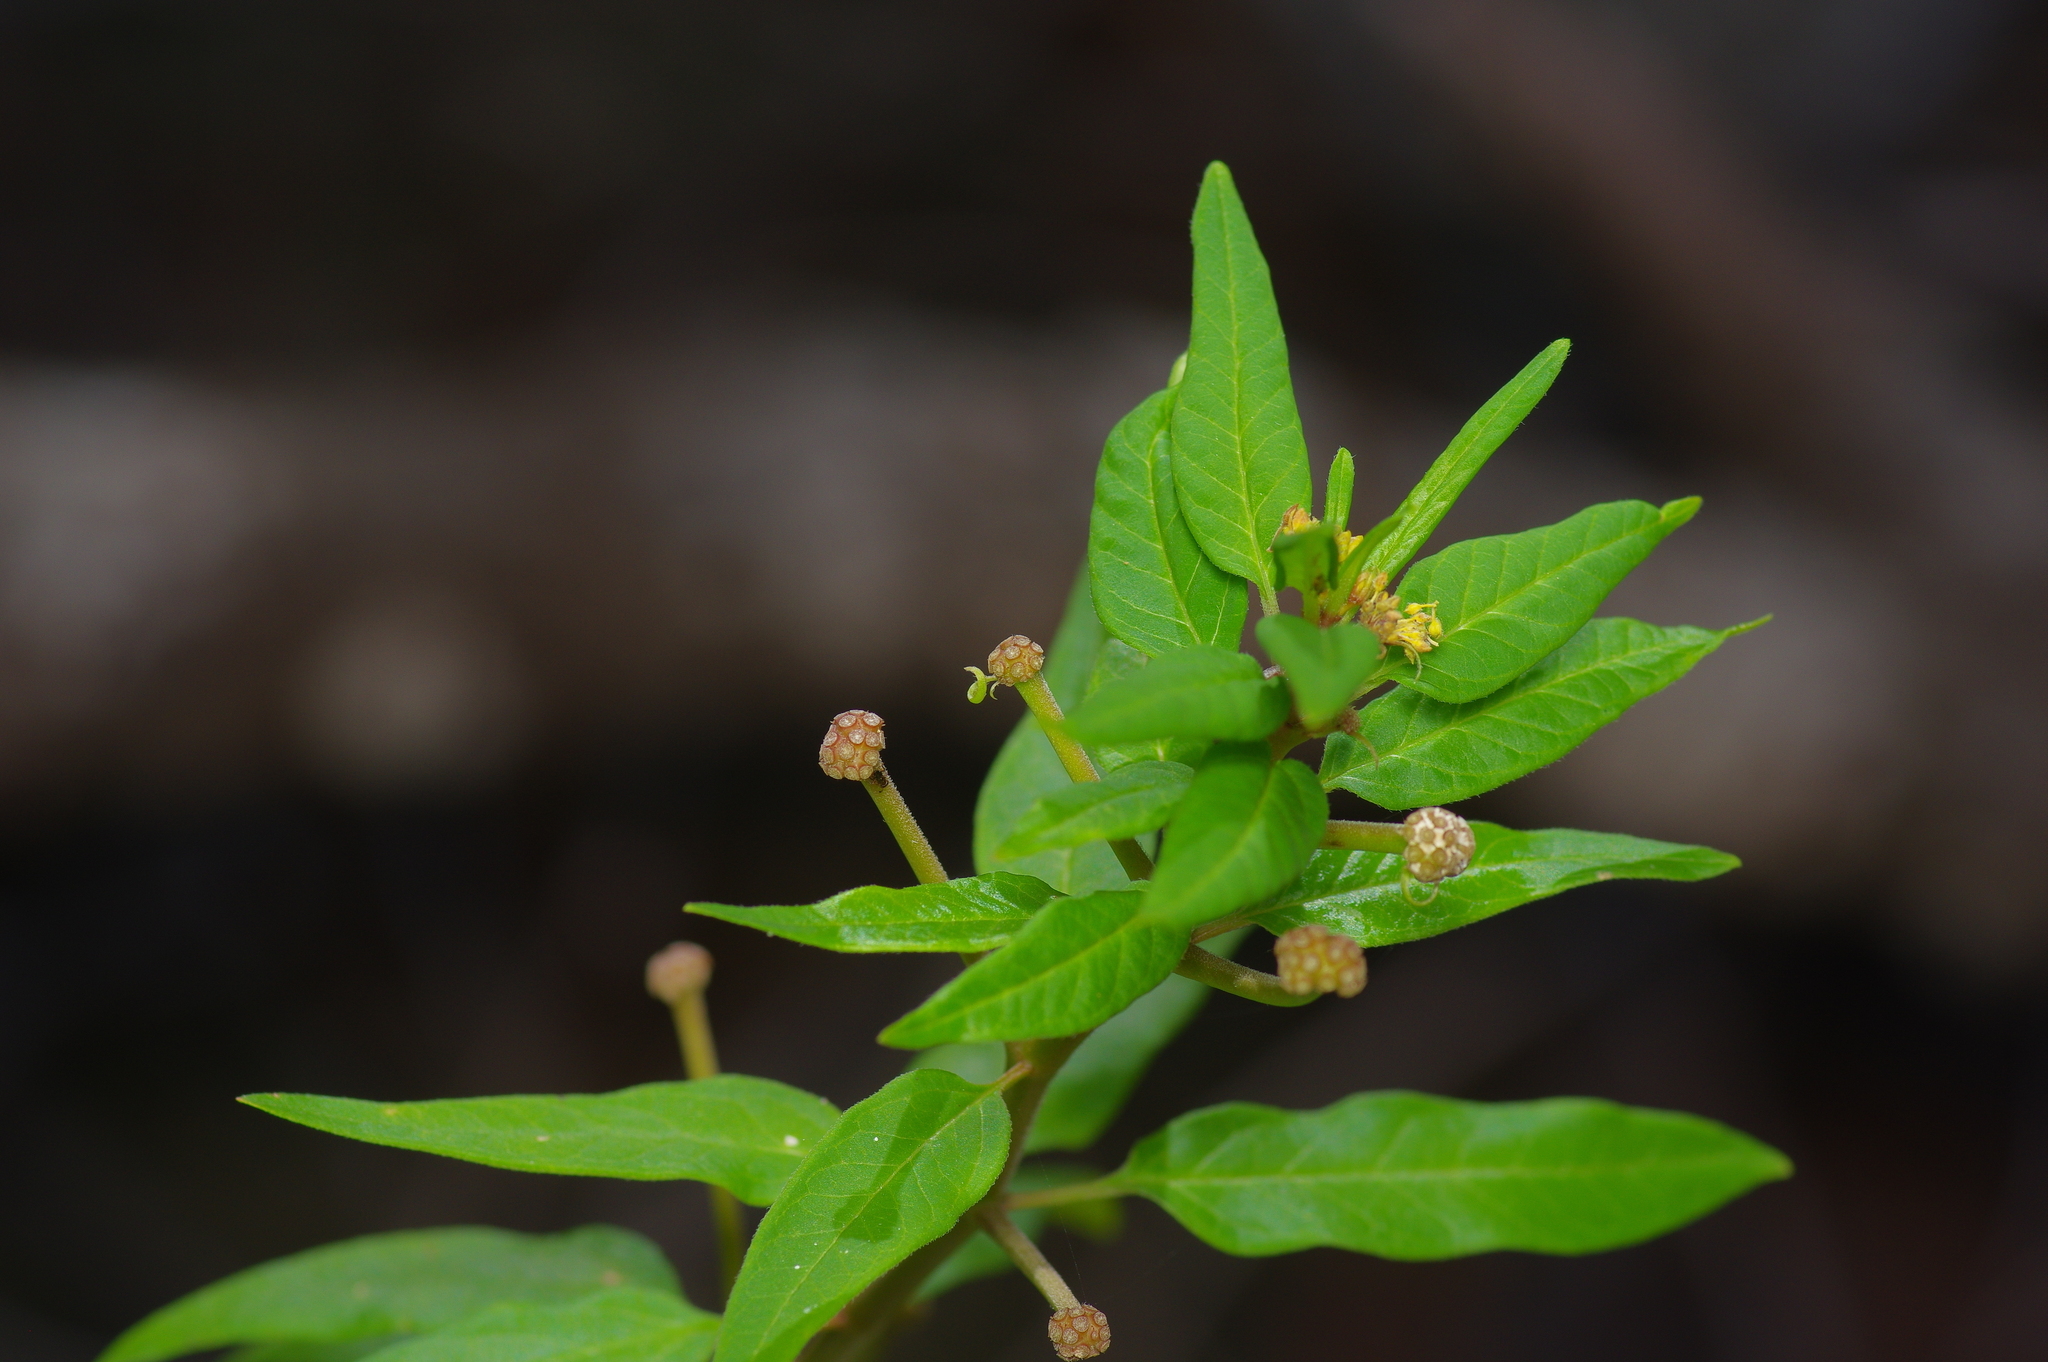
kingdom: Plantae
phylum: Tracheophyta
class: Magnoliopsida
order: Gentianales
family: Apocynaceae
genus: Asclepias
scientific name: Asclepias texana
